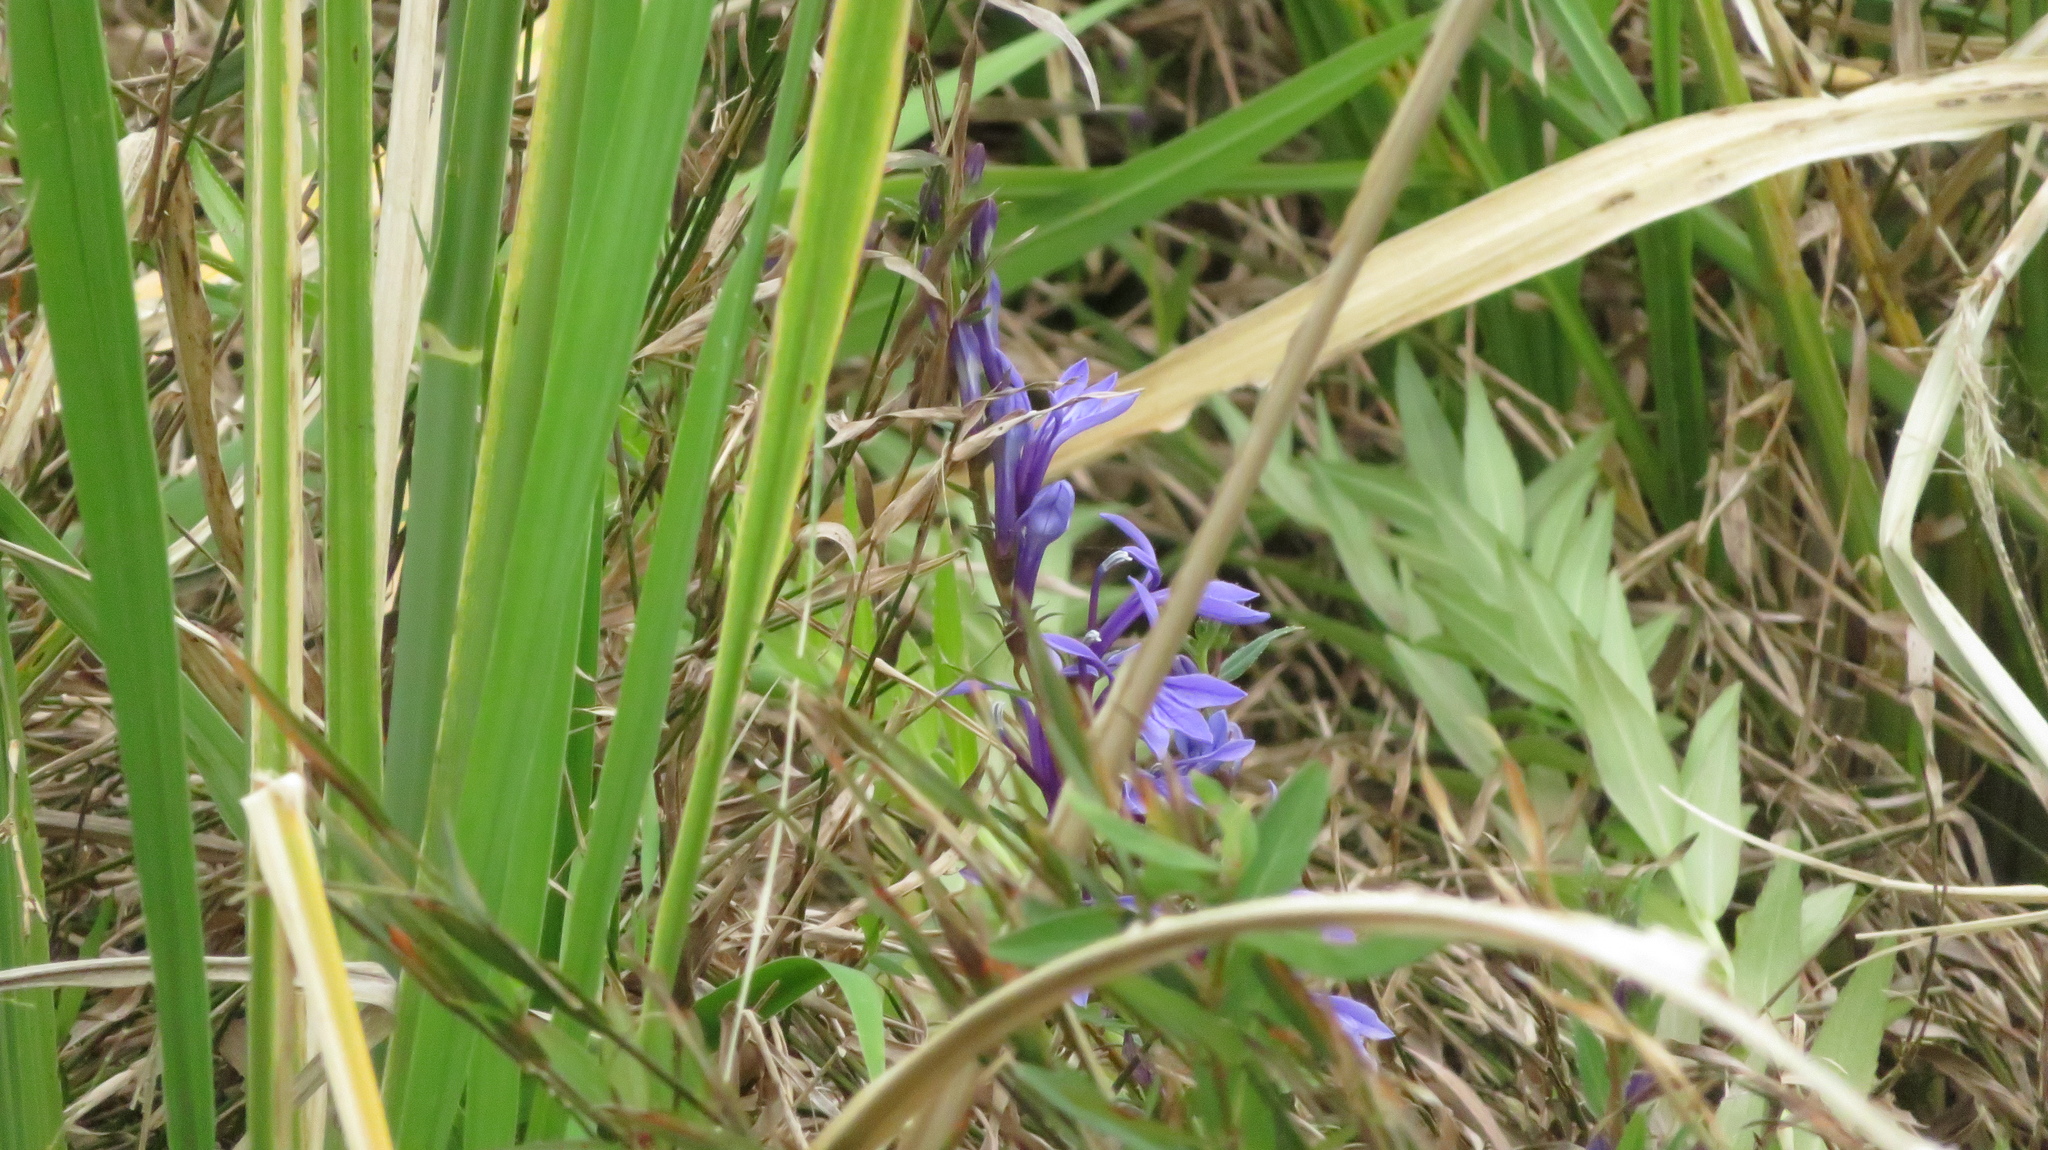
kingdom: Plantae
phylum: Tracheophyta
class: Magnoliopsida
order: Asterales
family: Campanulaceae
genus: Lobelia
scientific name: Lobelia sessilifolia
